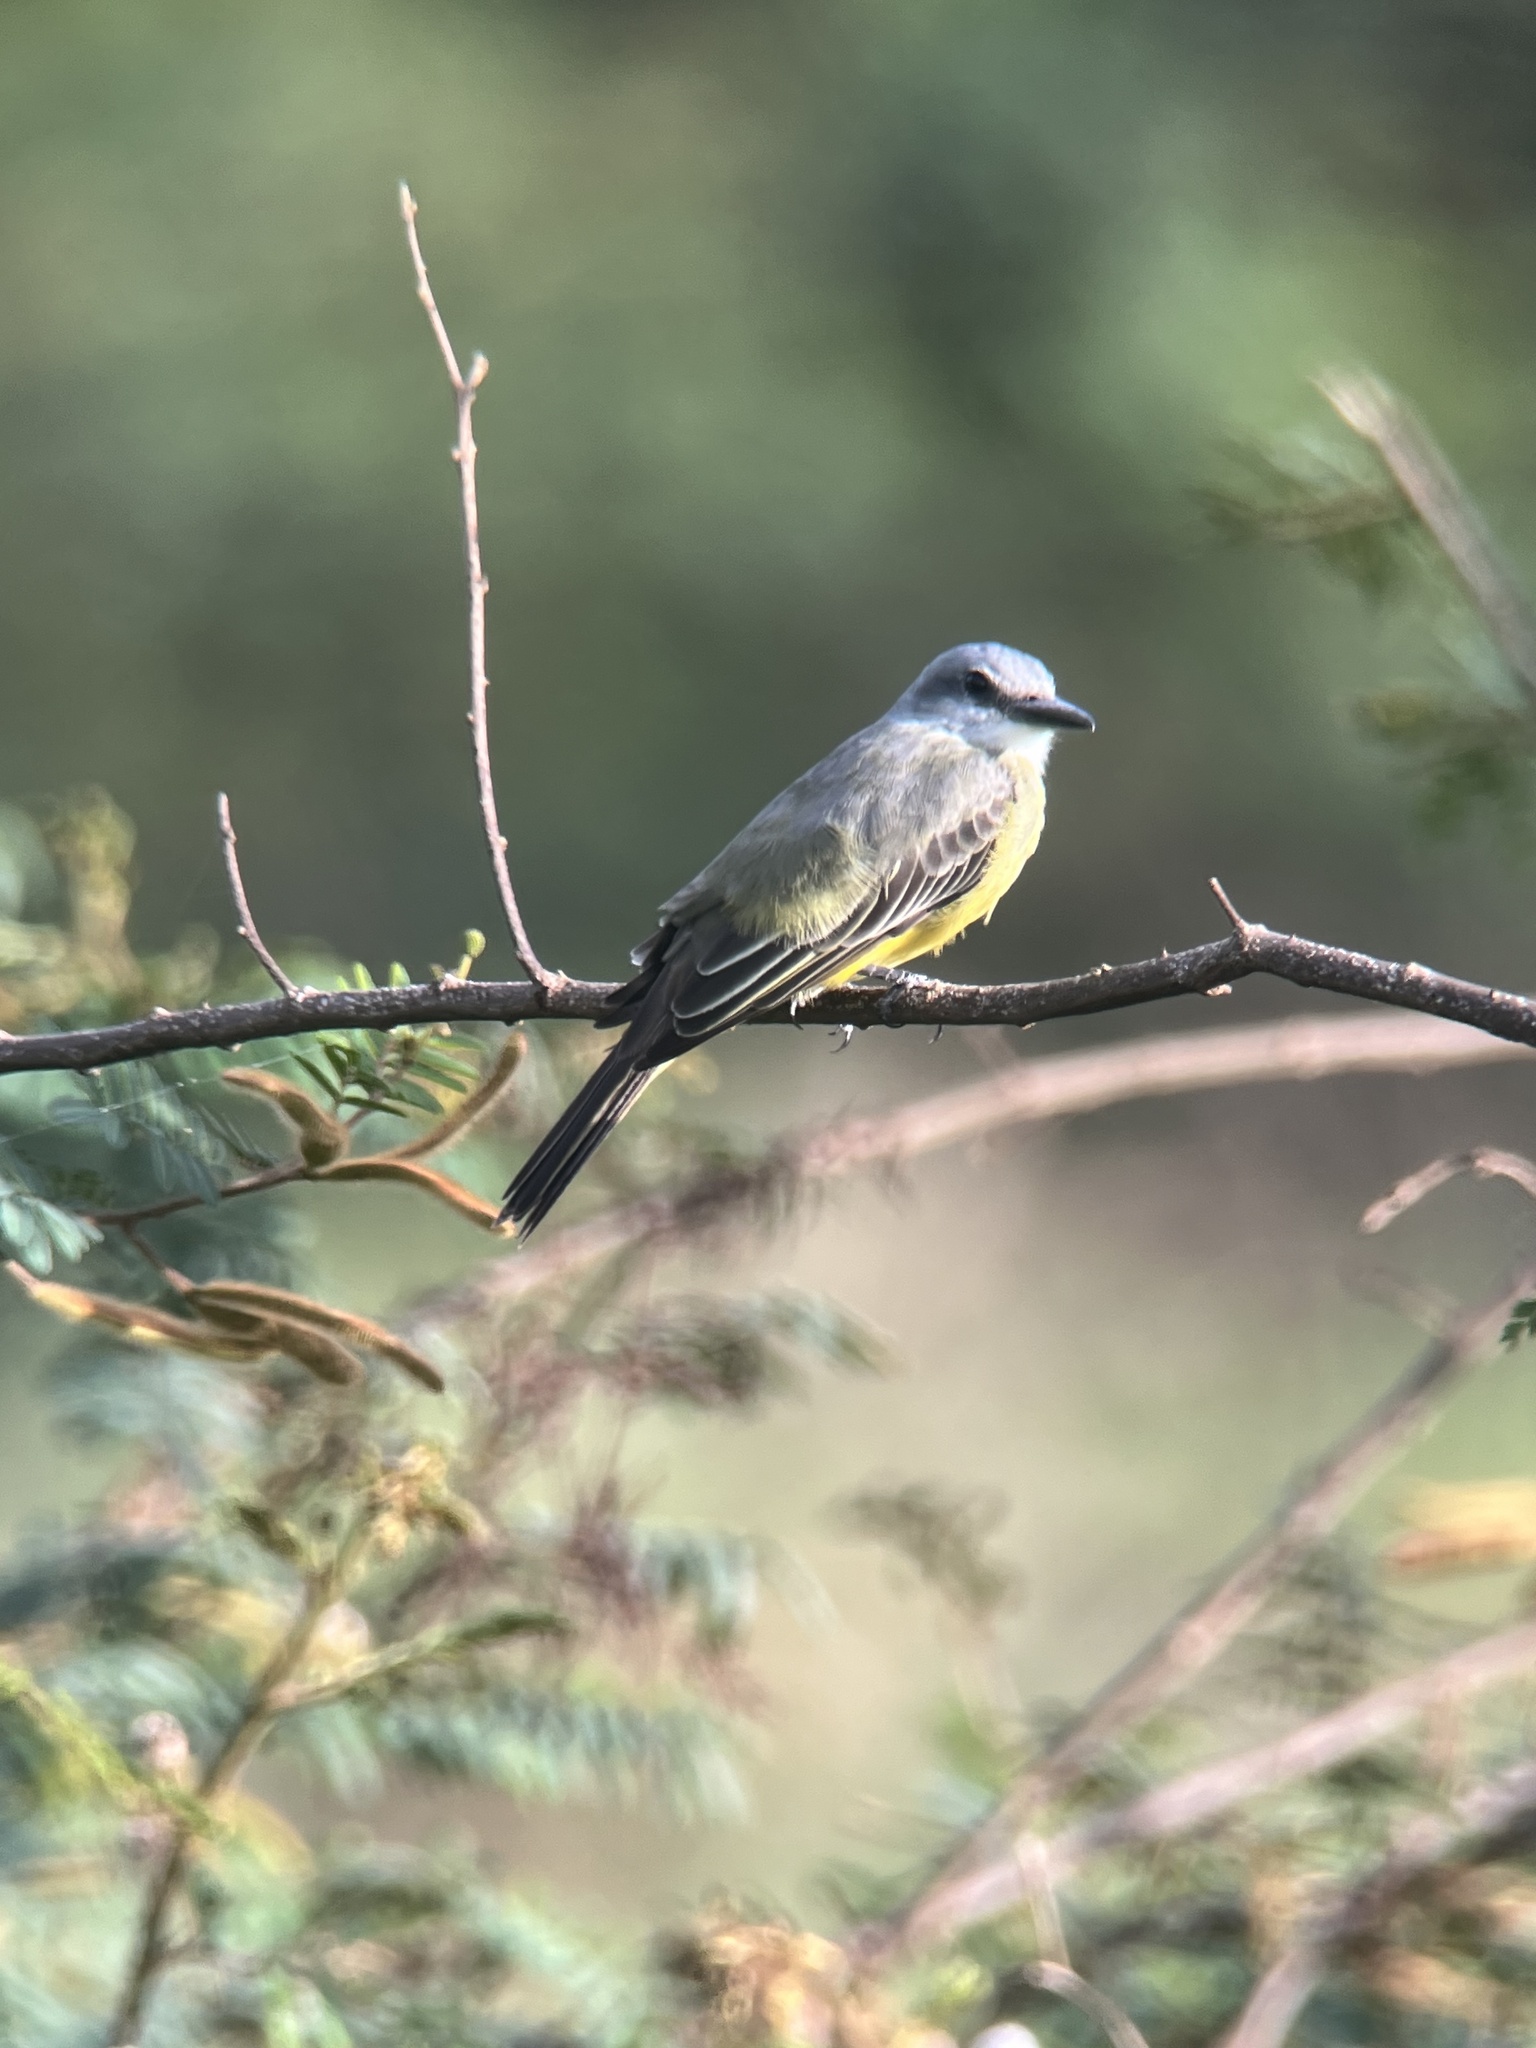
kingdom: Animalia
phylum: Chordata
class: Aves
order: Passeriformes
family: Tyrannidae
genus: Tyrannus
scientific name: Tyrannus melancholicus
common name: Tropical kingbird
